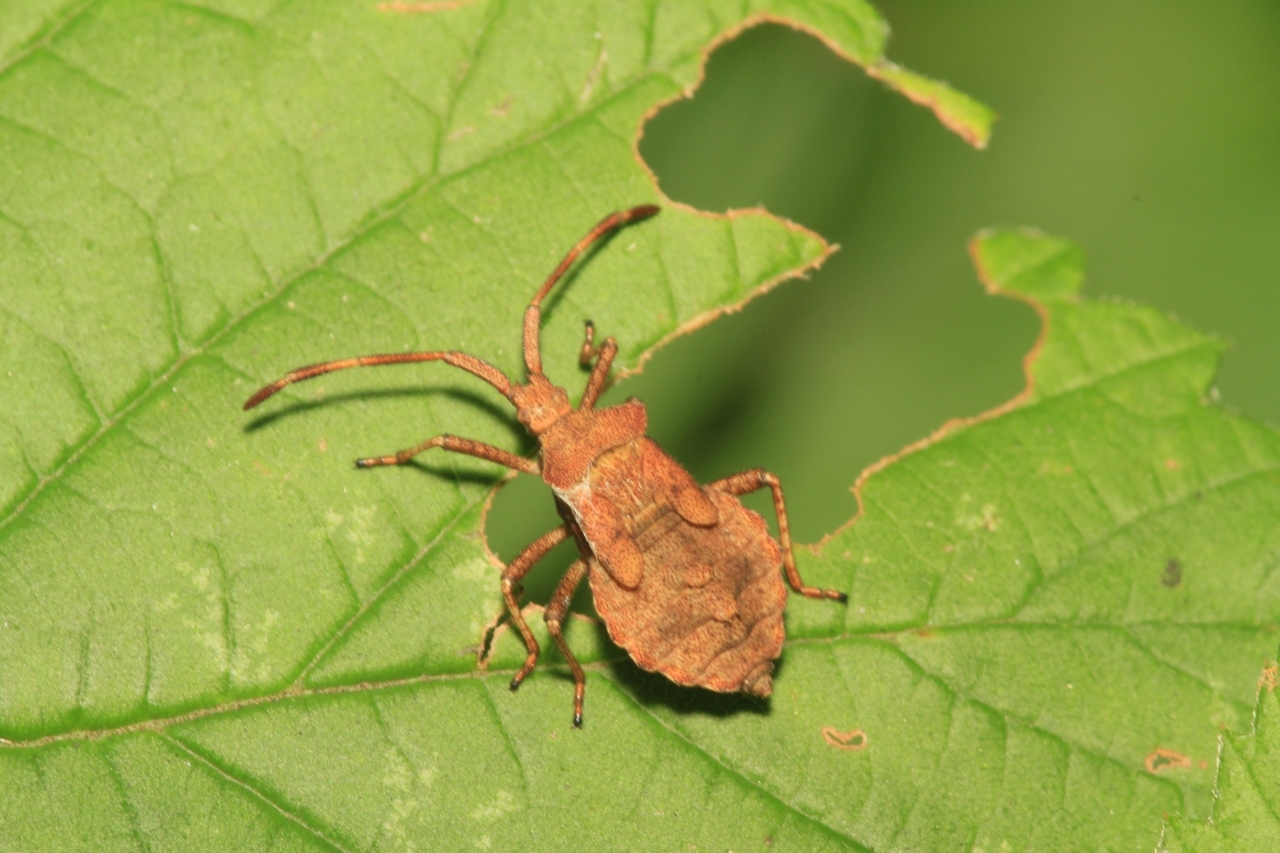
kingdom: Animalia
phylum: Arthropoda
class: Insecta
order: Hemiptera
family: Coreidae
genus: Coreus
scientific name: Coreus marginatus
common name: Dock bug
